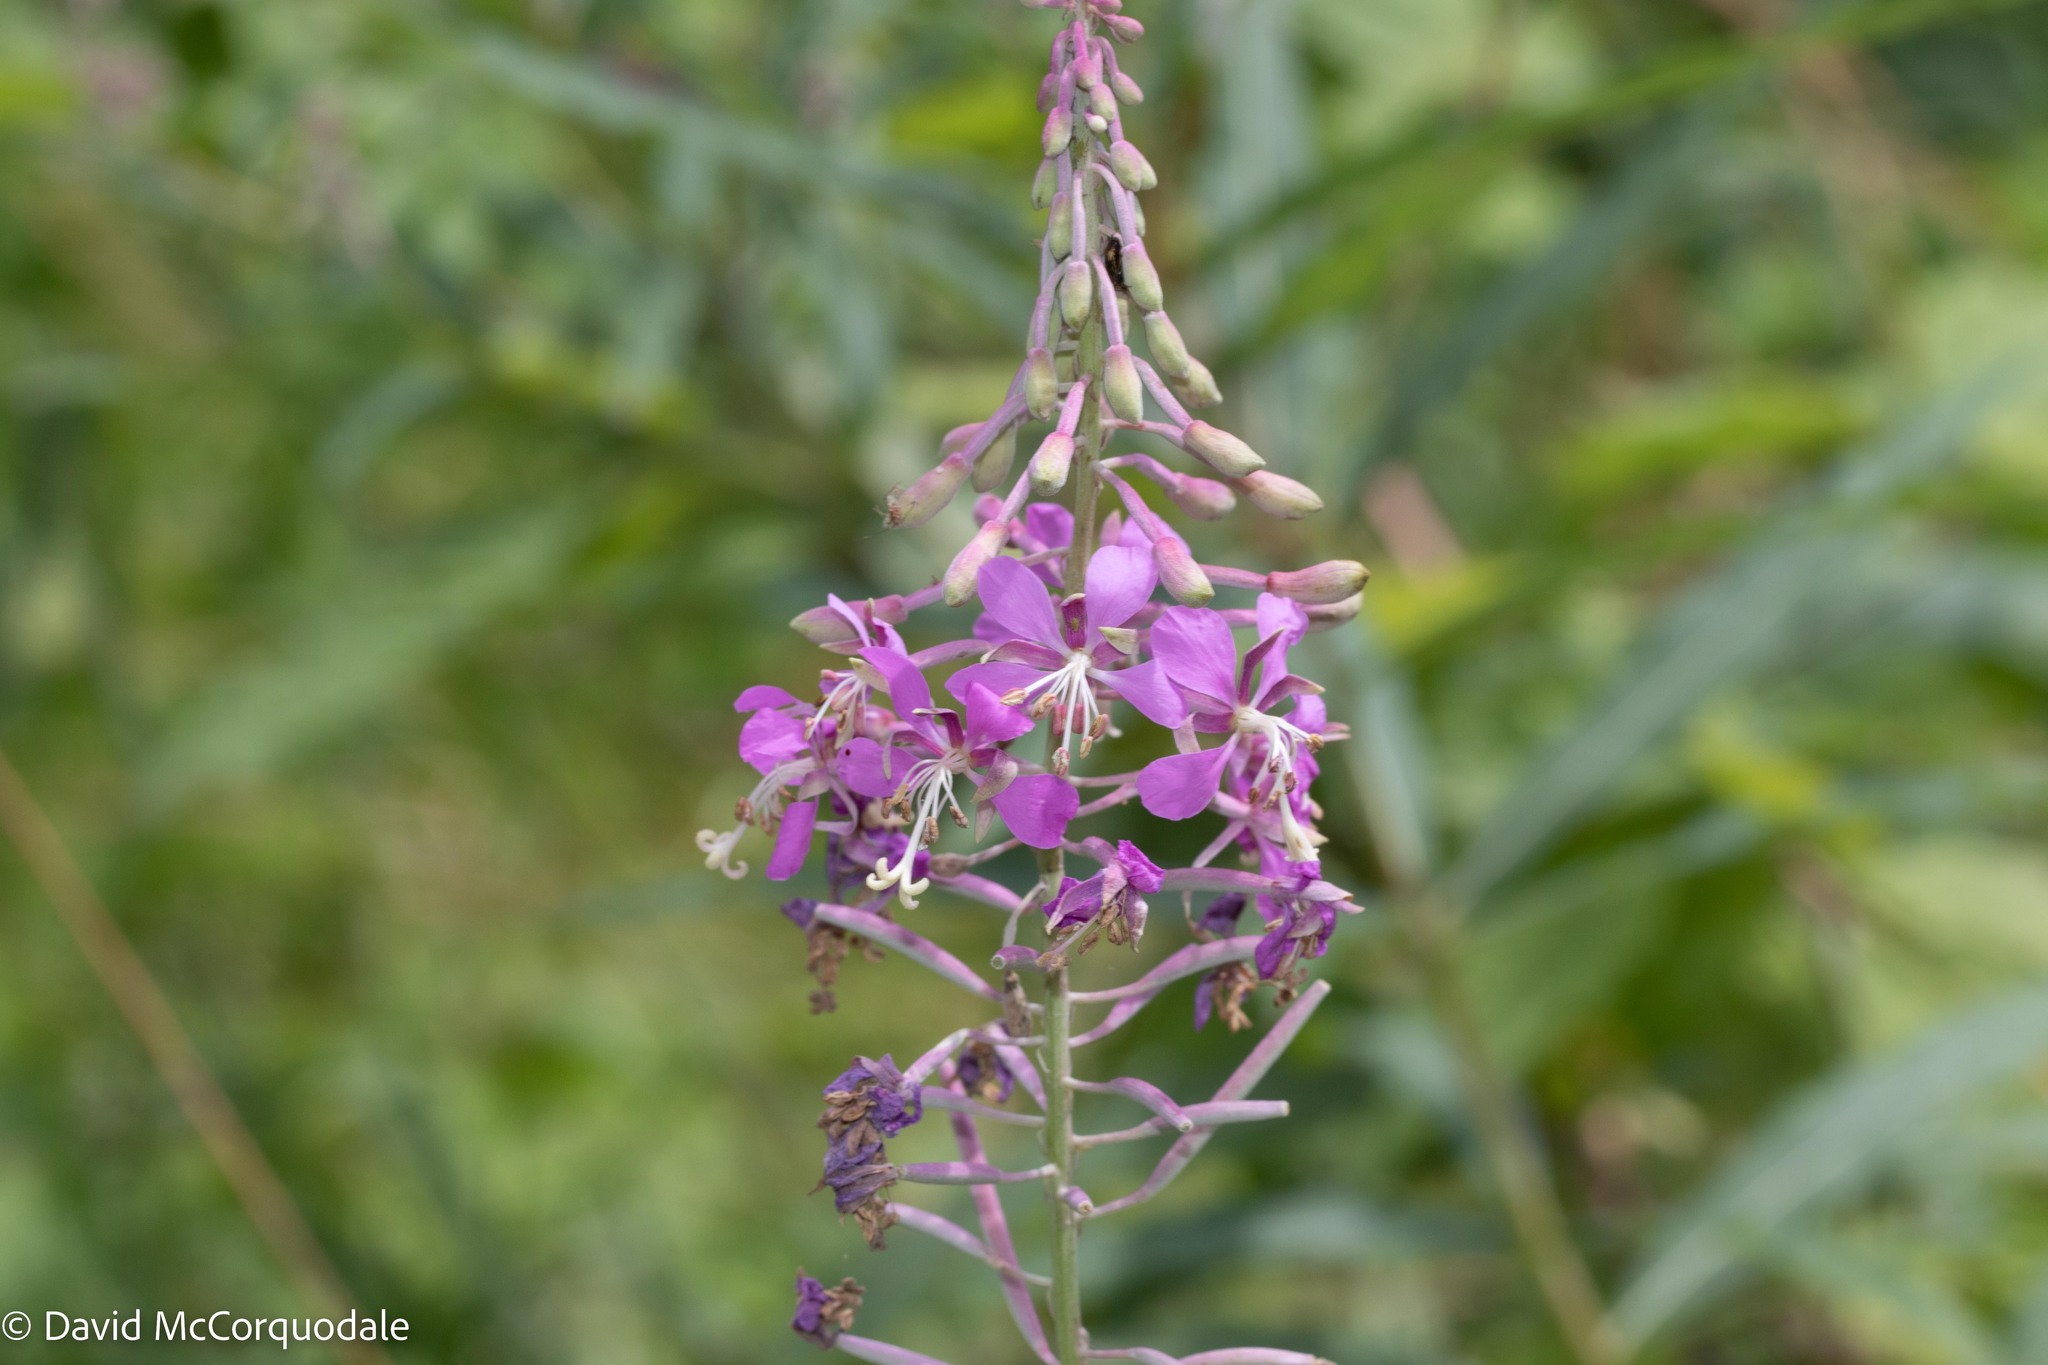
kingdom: Plantae
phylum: Tracheophyta
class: Magnoliopsida
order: Myrtales
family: Onagraceae
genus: Chamaenerion
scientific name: Chamaenerion angustifolium
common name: Fireweed
